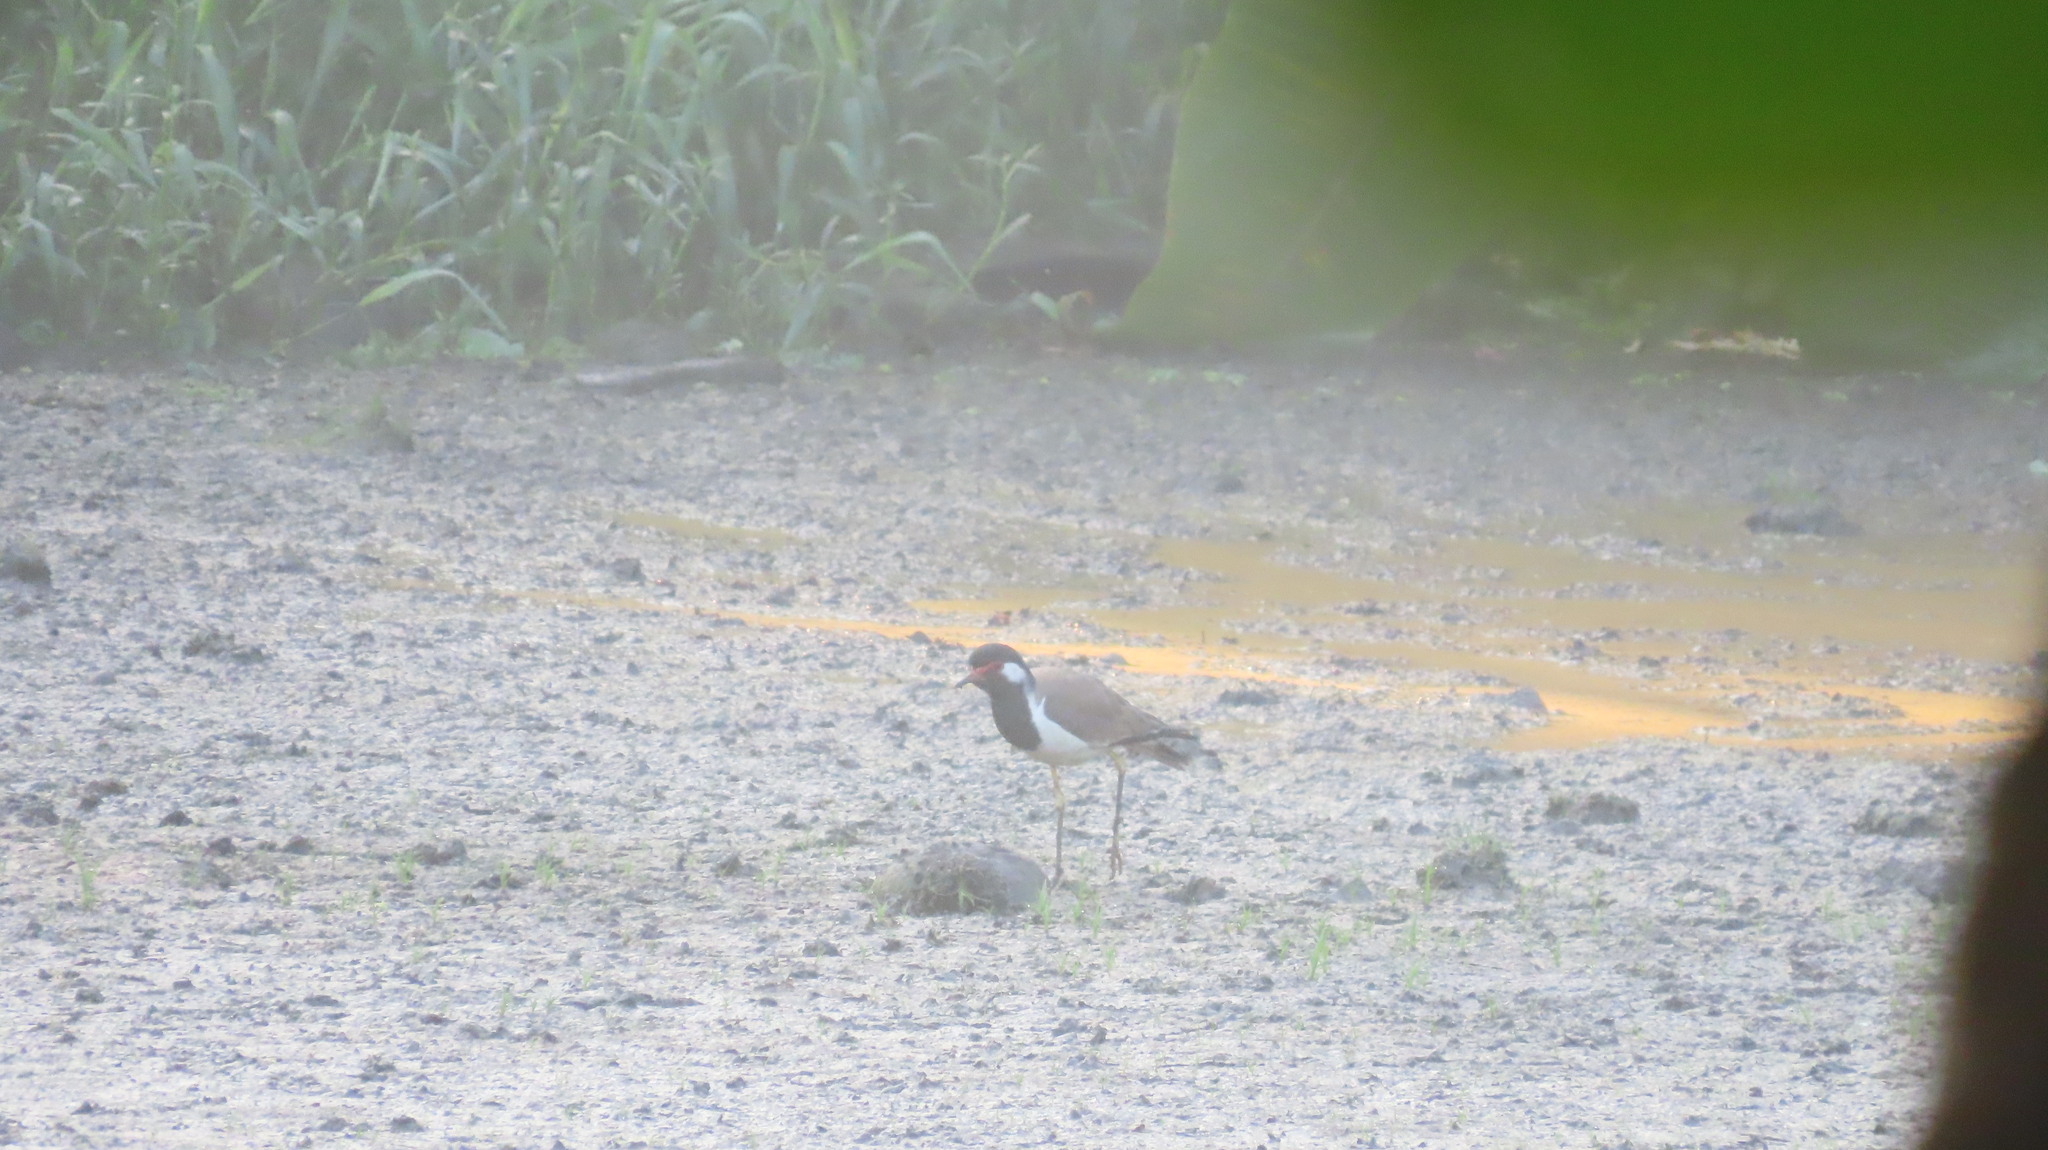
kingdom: Animalia
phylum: Chordata
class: Aves
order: Charadriiformes
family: Charadriidae
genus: Vanellus
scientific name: Vanellus indicus
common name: Red-wattled lapwing
